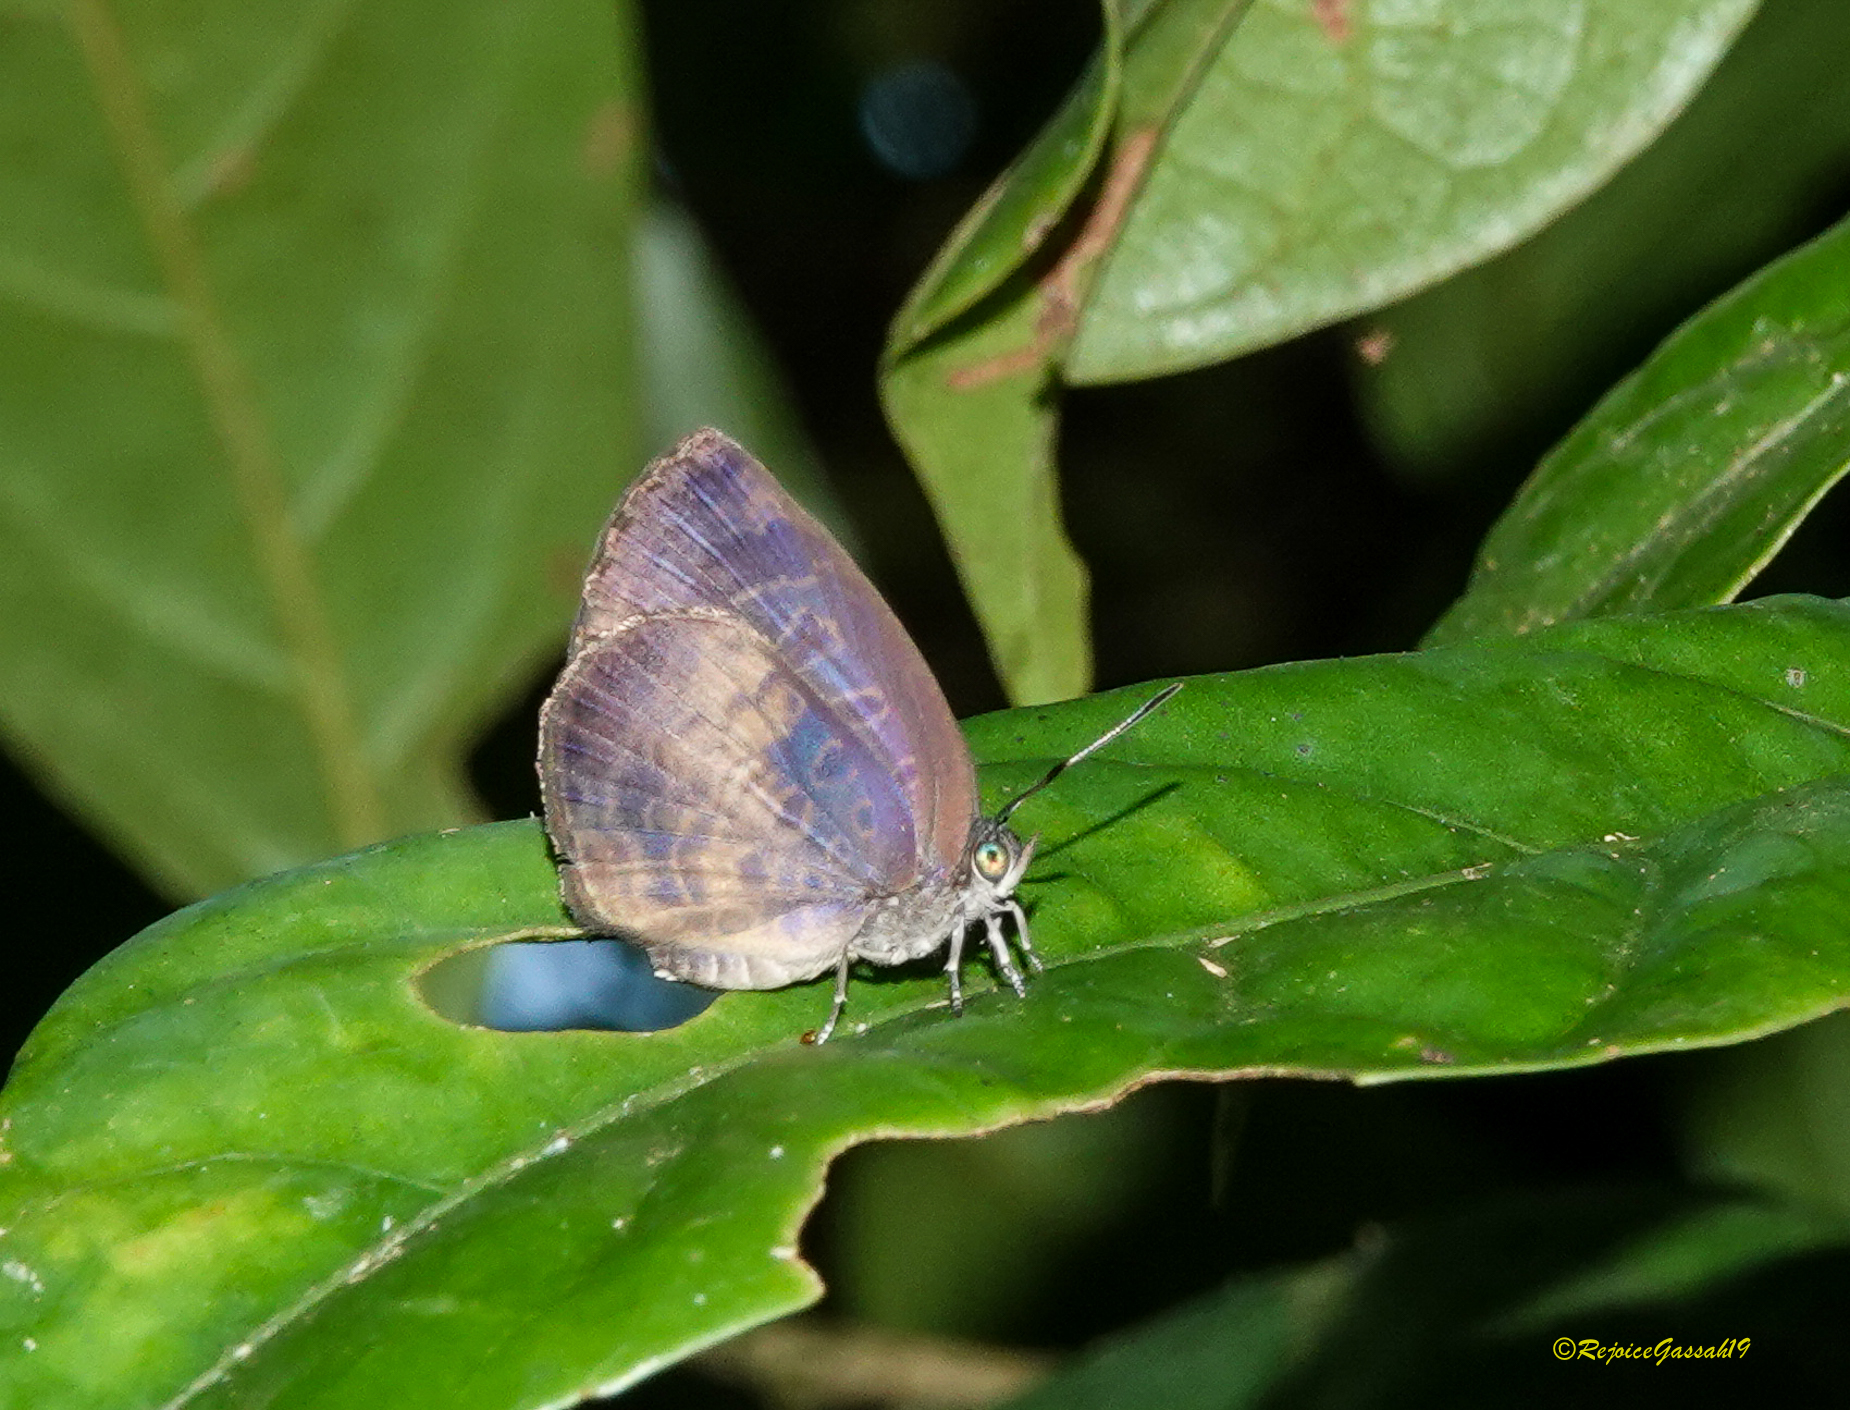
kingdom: Animalia
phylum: Arthropoda
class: Insecta
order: Lepidoptera
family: Lycaenidae
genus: Arhopala
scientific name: Arhopala perimuta
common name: Yellowdisc oakblue
